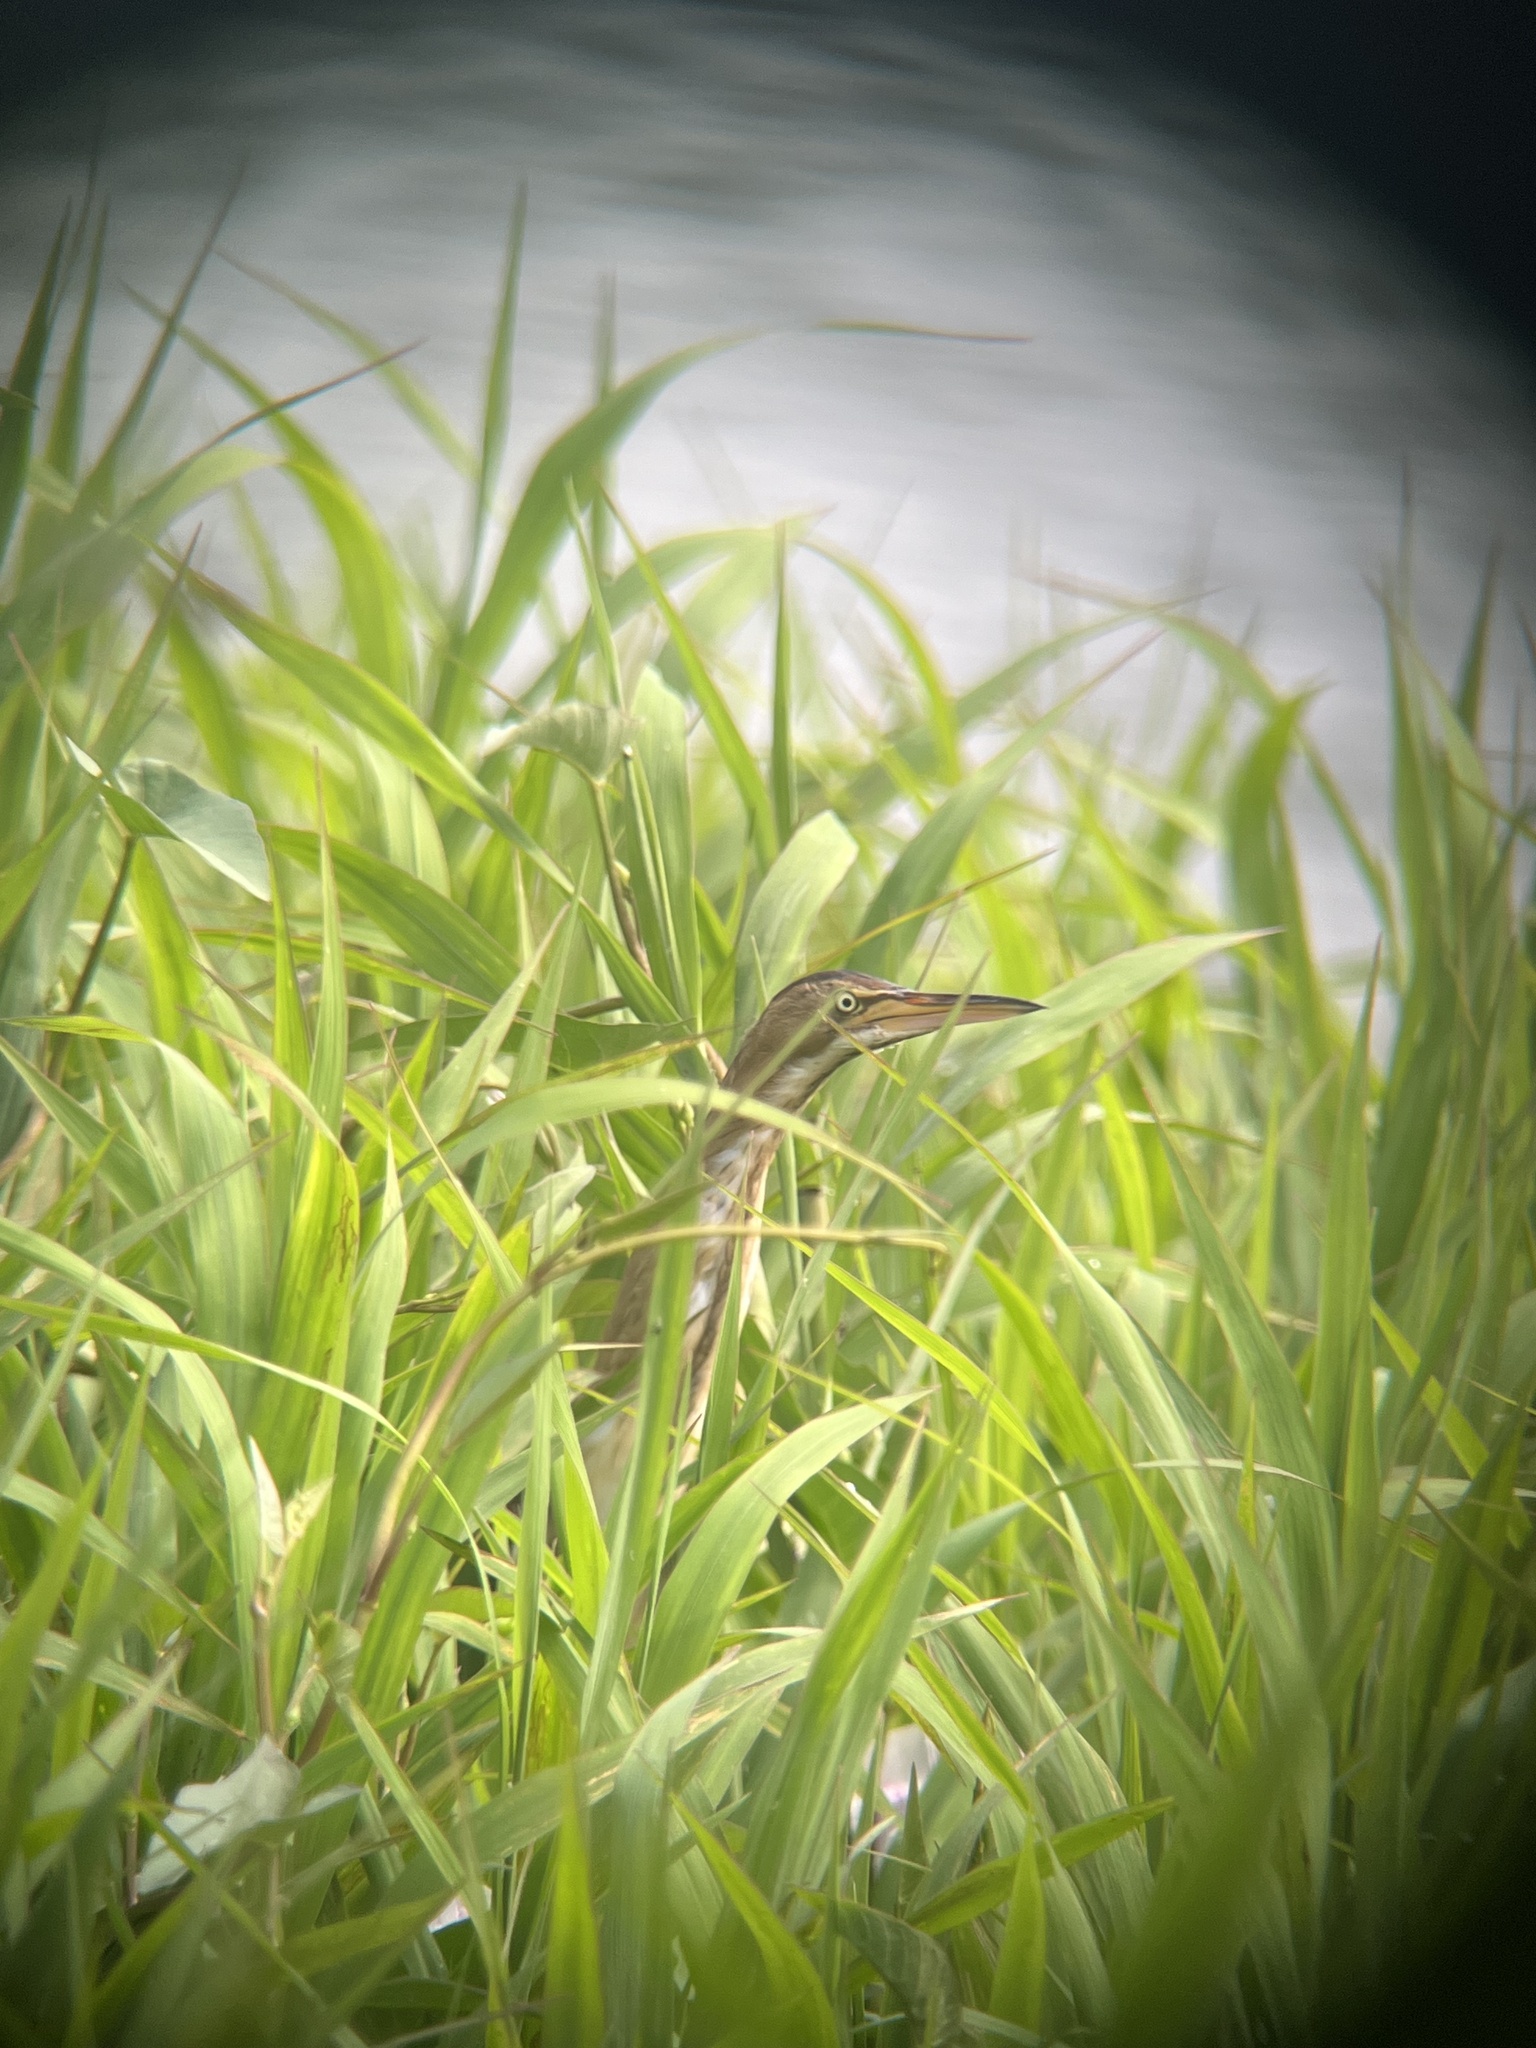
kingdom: Animalia
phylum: Chordata
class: Aves
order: Pelecaniformes
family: Ardeidae
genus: Ixobrychus
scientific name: Ixobrychus exilis
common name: Least bittern
